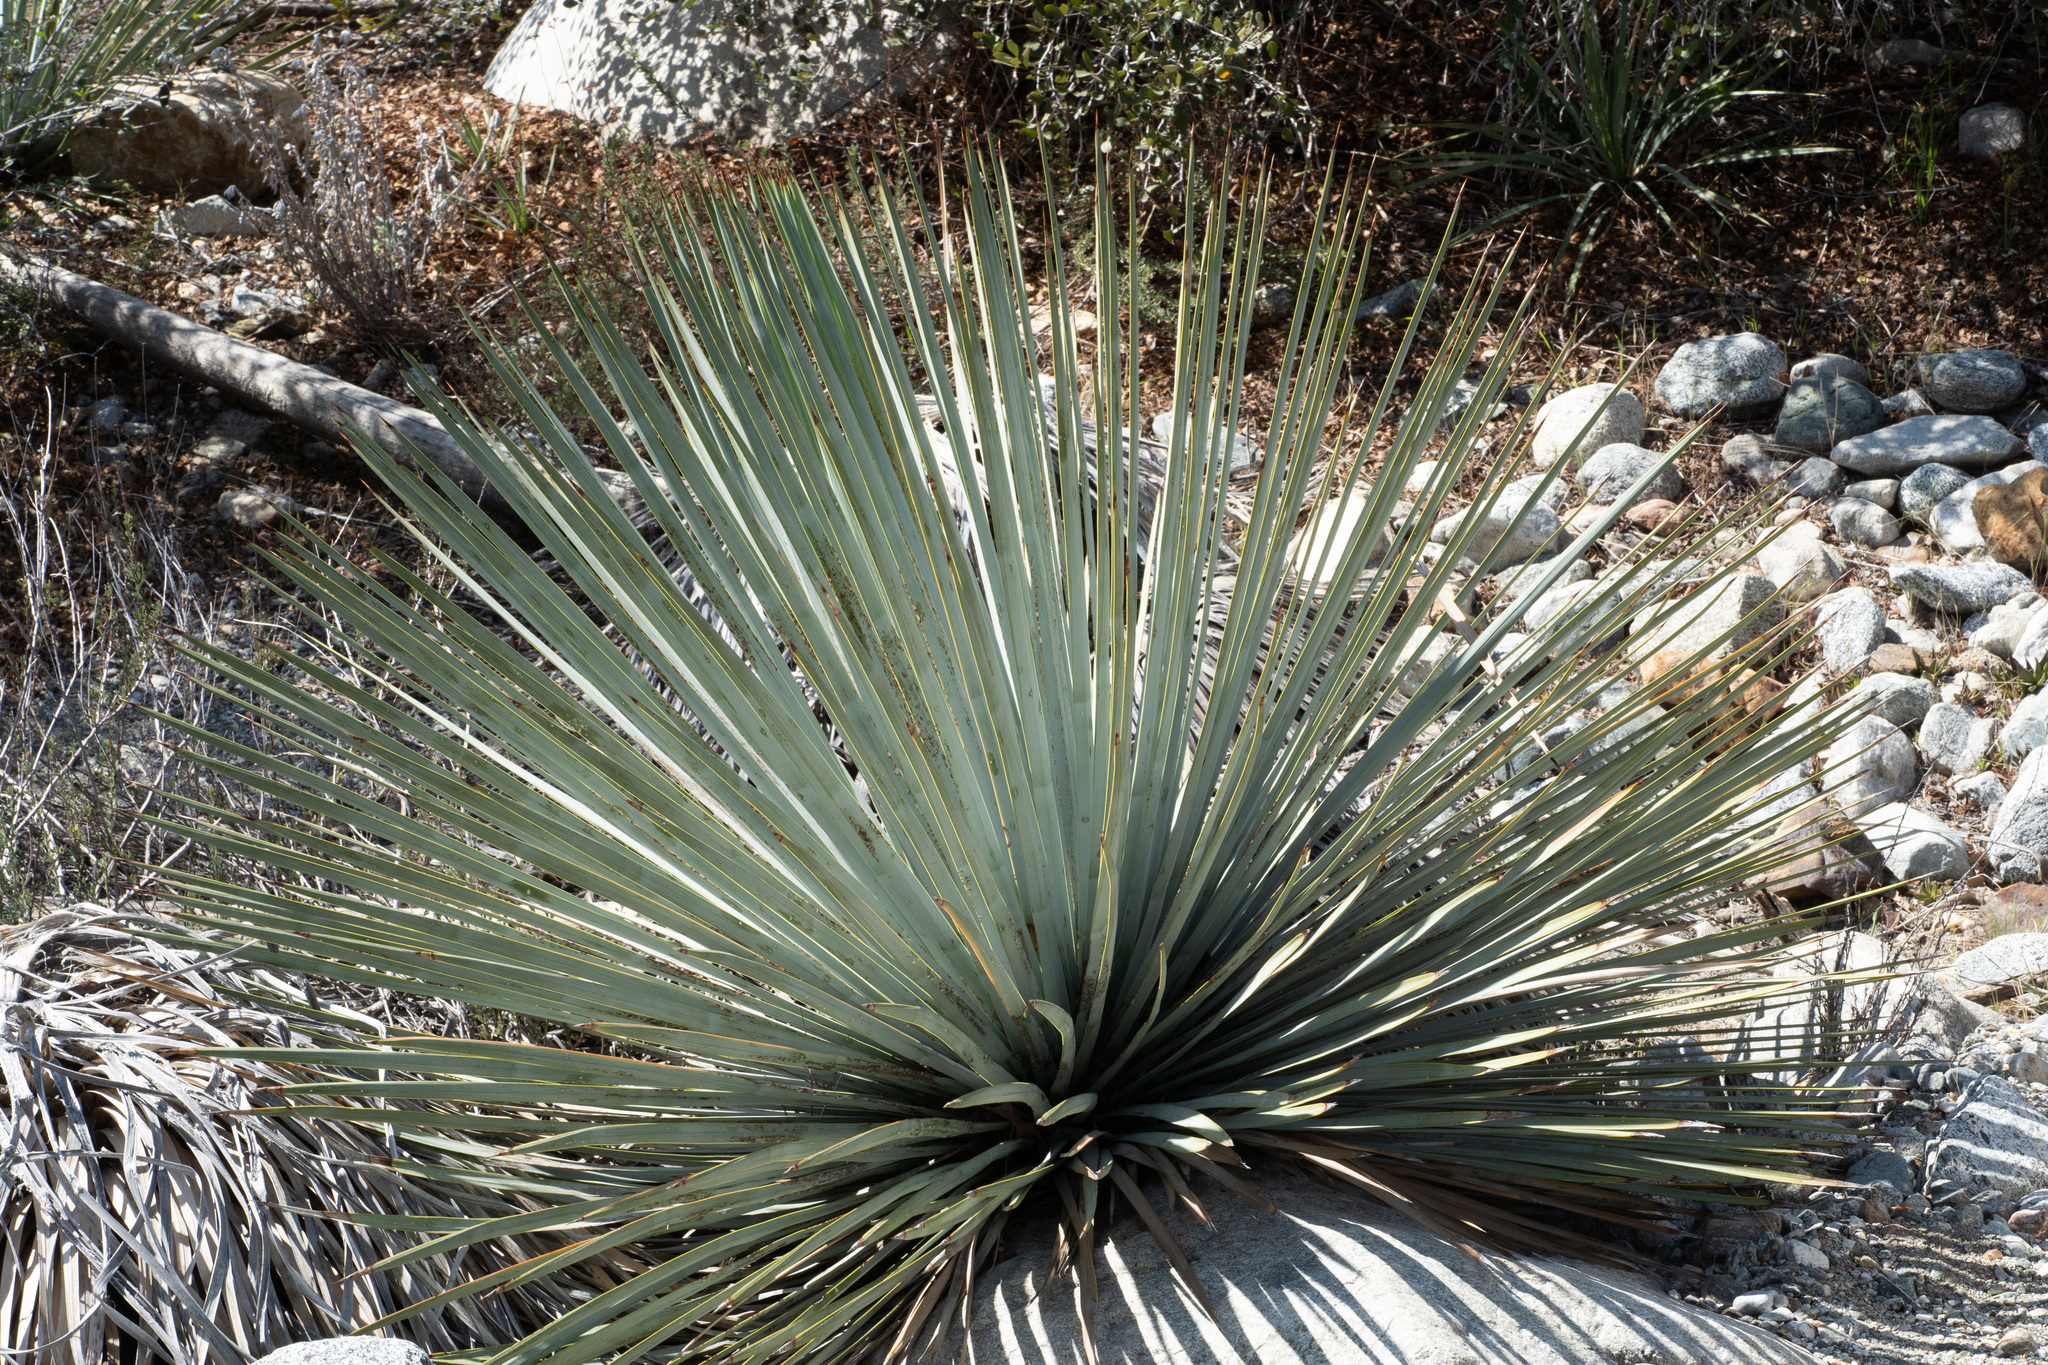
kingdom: Plantae
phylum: Tracheophyta
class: Liliopsida
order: Asparagales
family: Asparagaceae
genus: Hesperoyucca
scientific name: Hesperoyucca whipplei
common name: Our lord's-candle
